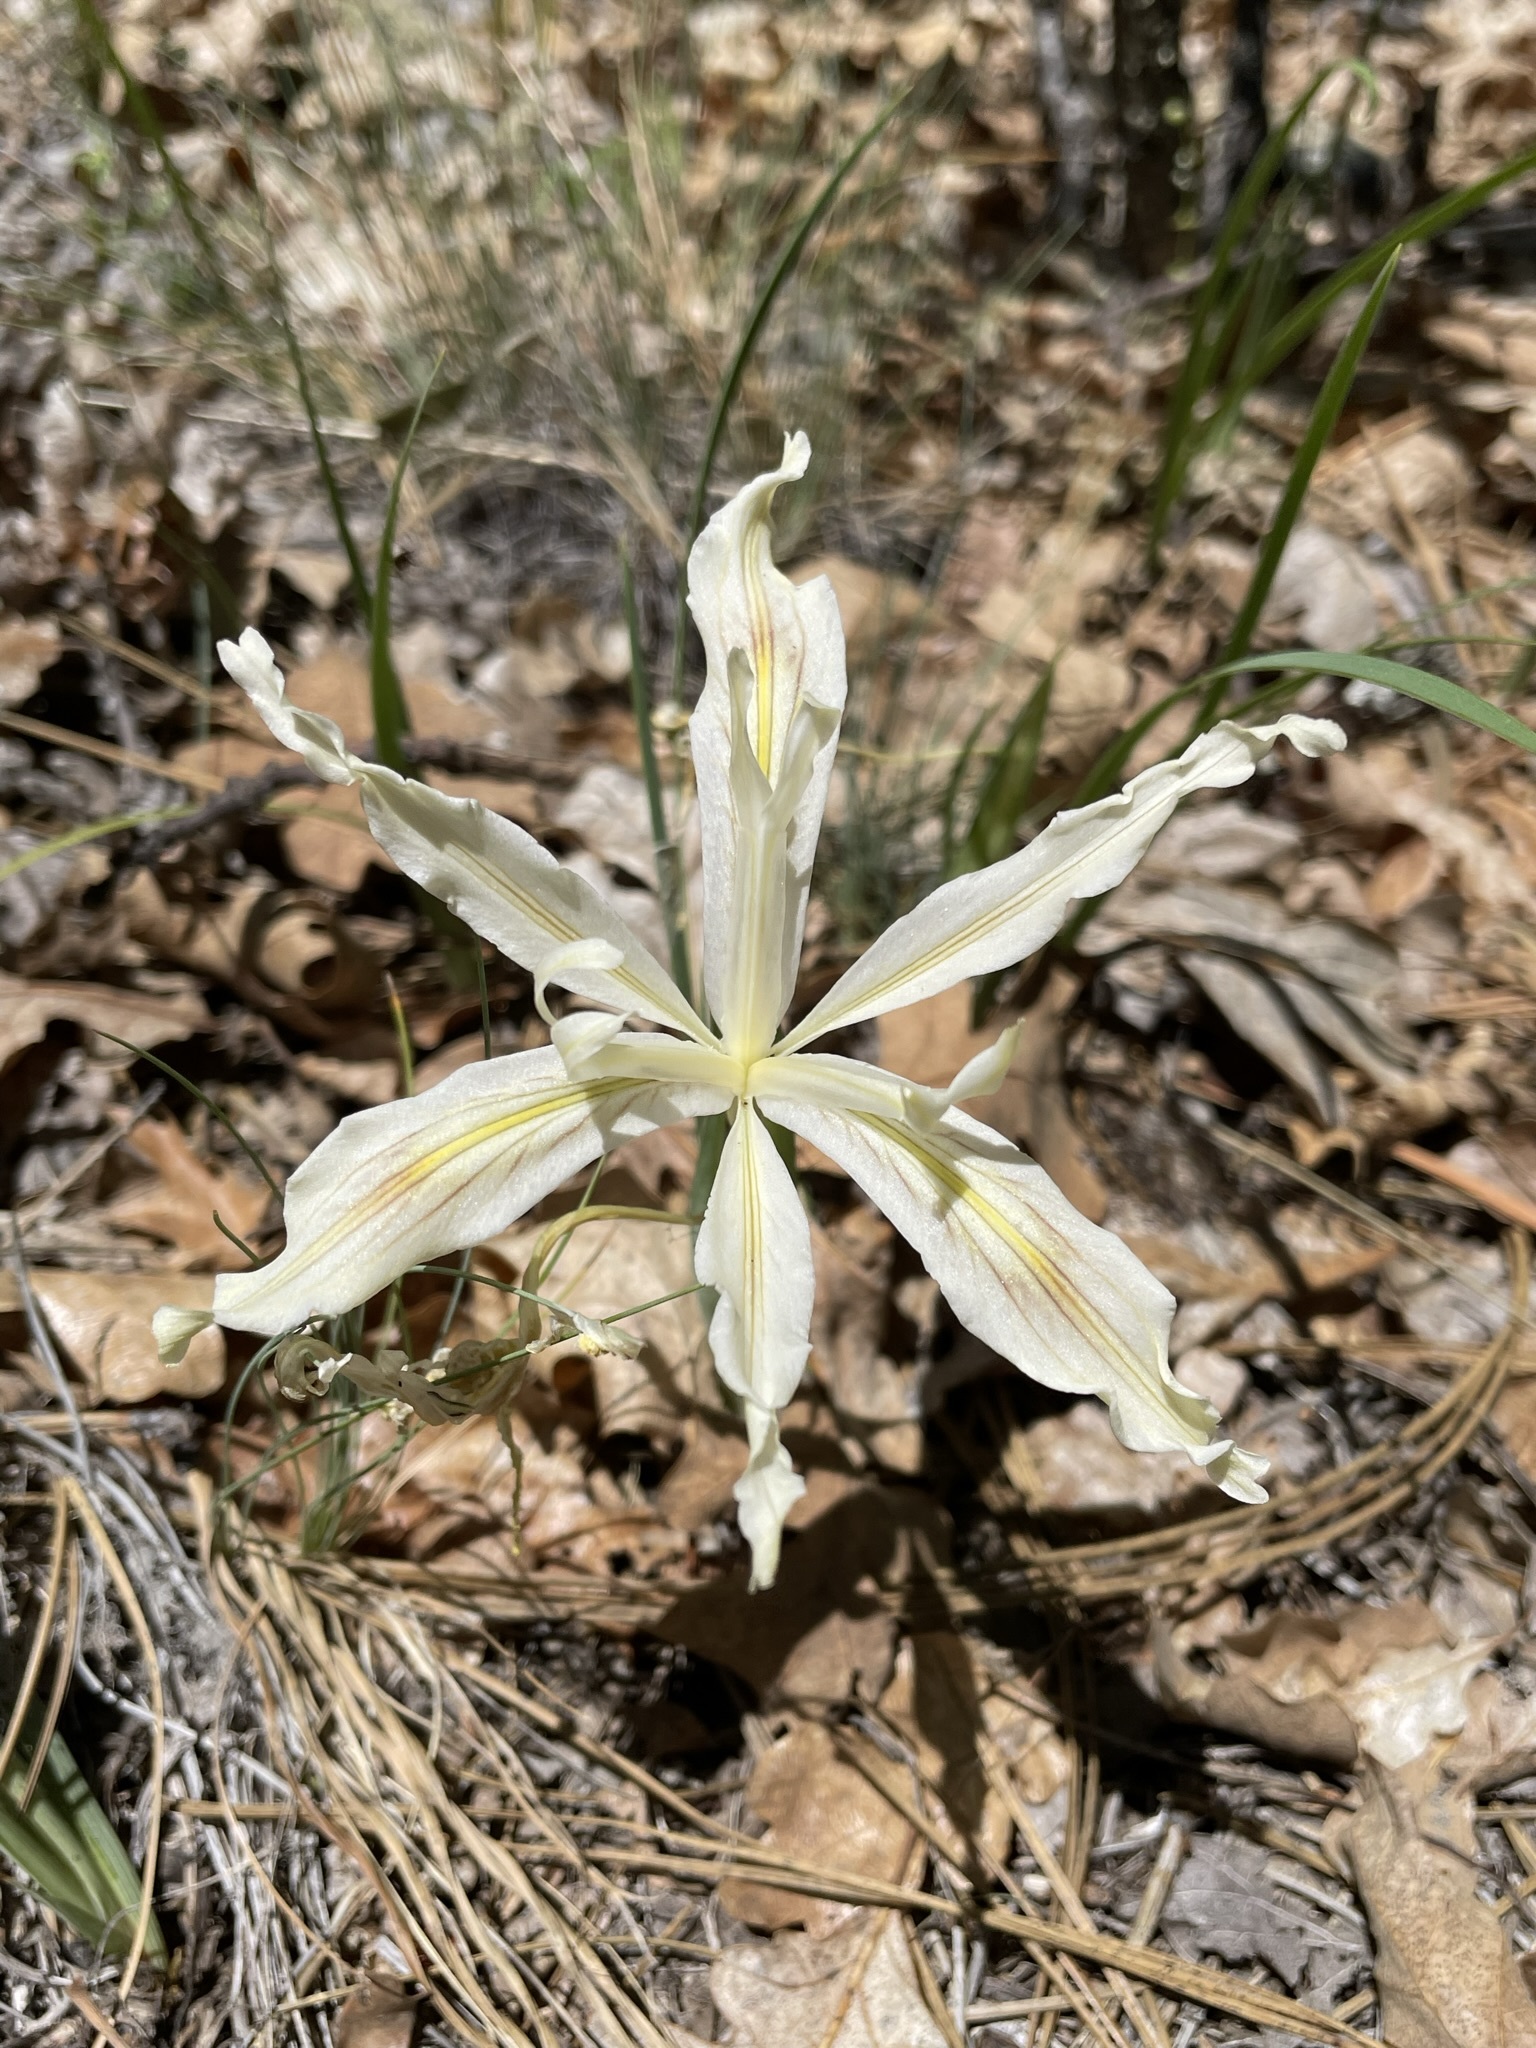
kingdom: Plantae
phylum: Tracheophyta
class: Liliopsida
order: Asparagales
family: Iridaceae
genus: Iris
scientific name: Iris tenuissima
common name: Long-tube iris
